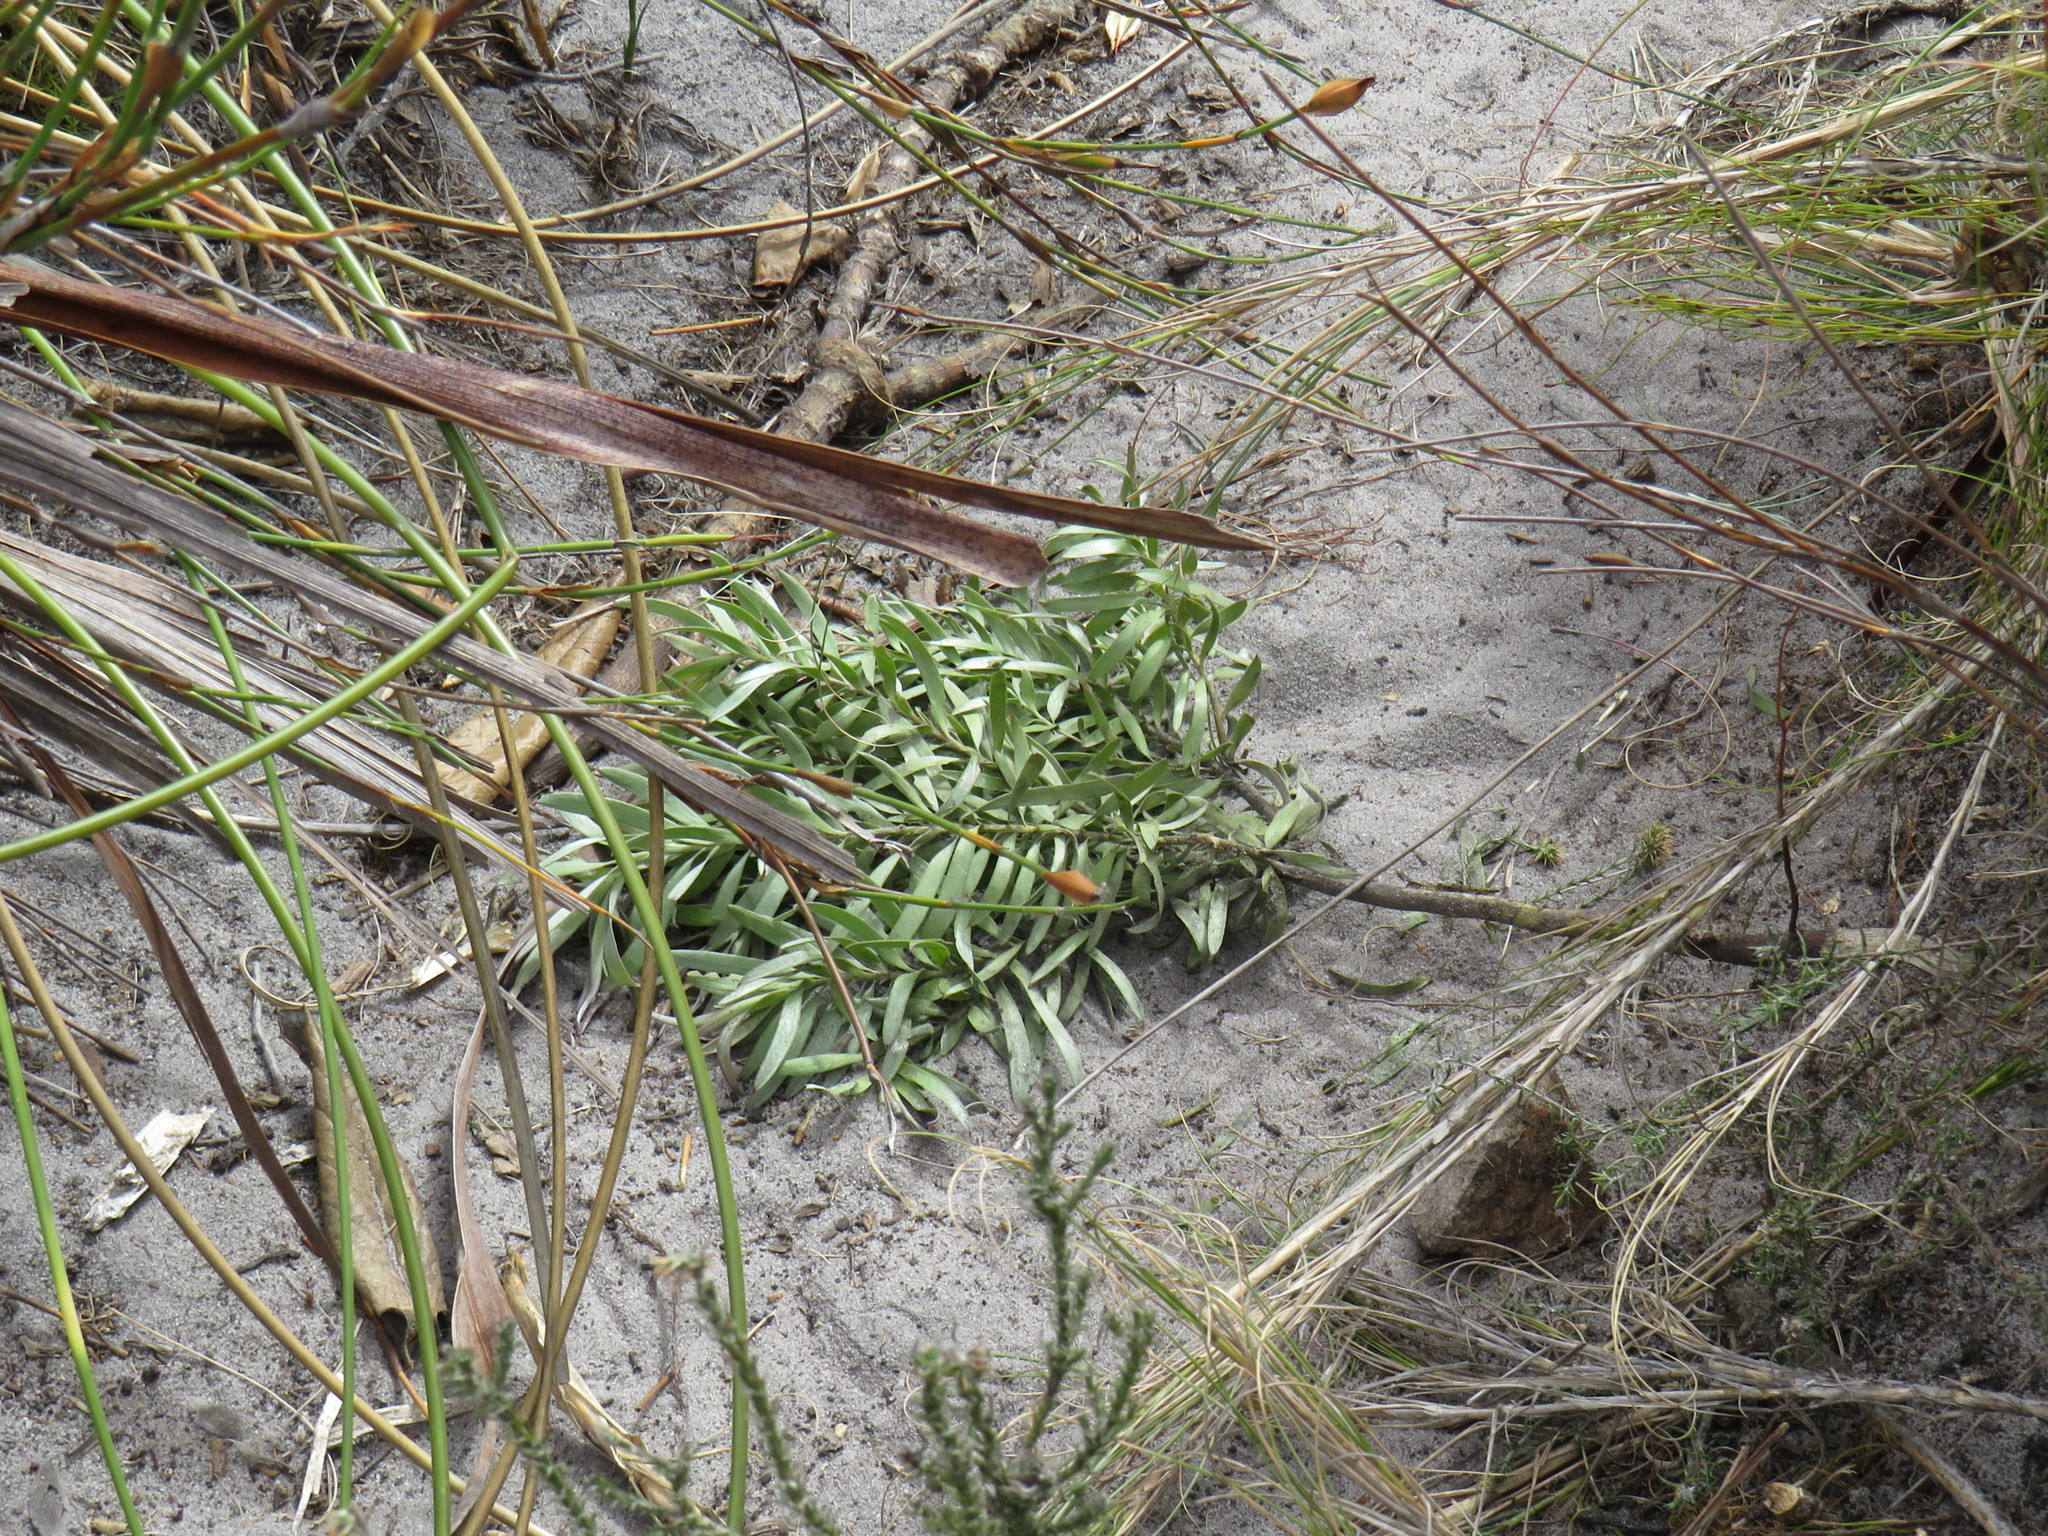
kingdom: Plantae
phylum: Tracheophyta
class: Magnoliopsida
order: Proteales
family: Proteaceae
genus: Leucadendron
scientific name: Leucadendron xanthoconus
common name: Sickle-leaf conebush
